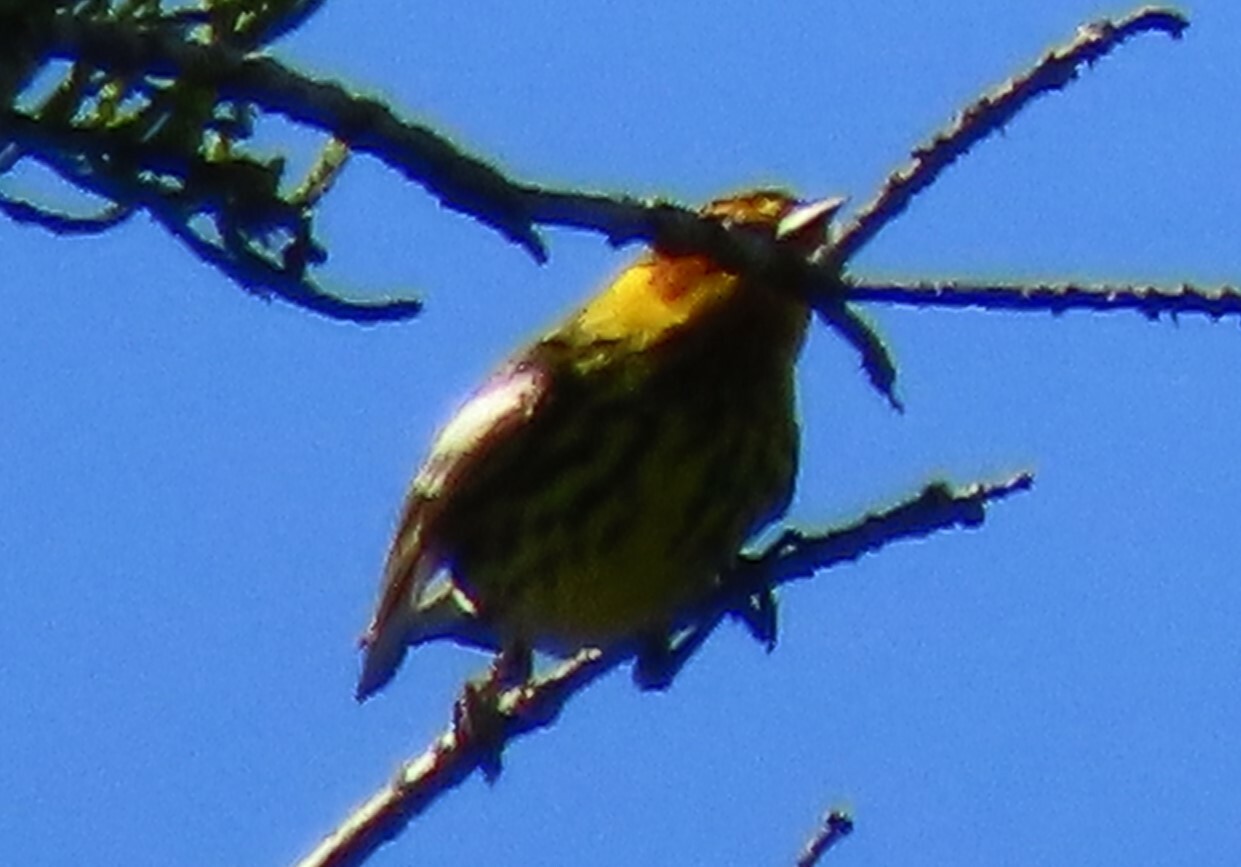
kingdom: Animalia
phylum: Chordata
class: Aves
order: Passeriformes
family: Parulidae
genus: Setophaga
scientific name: Setophaga tigrina
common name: Cape may warbler
